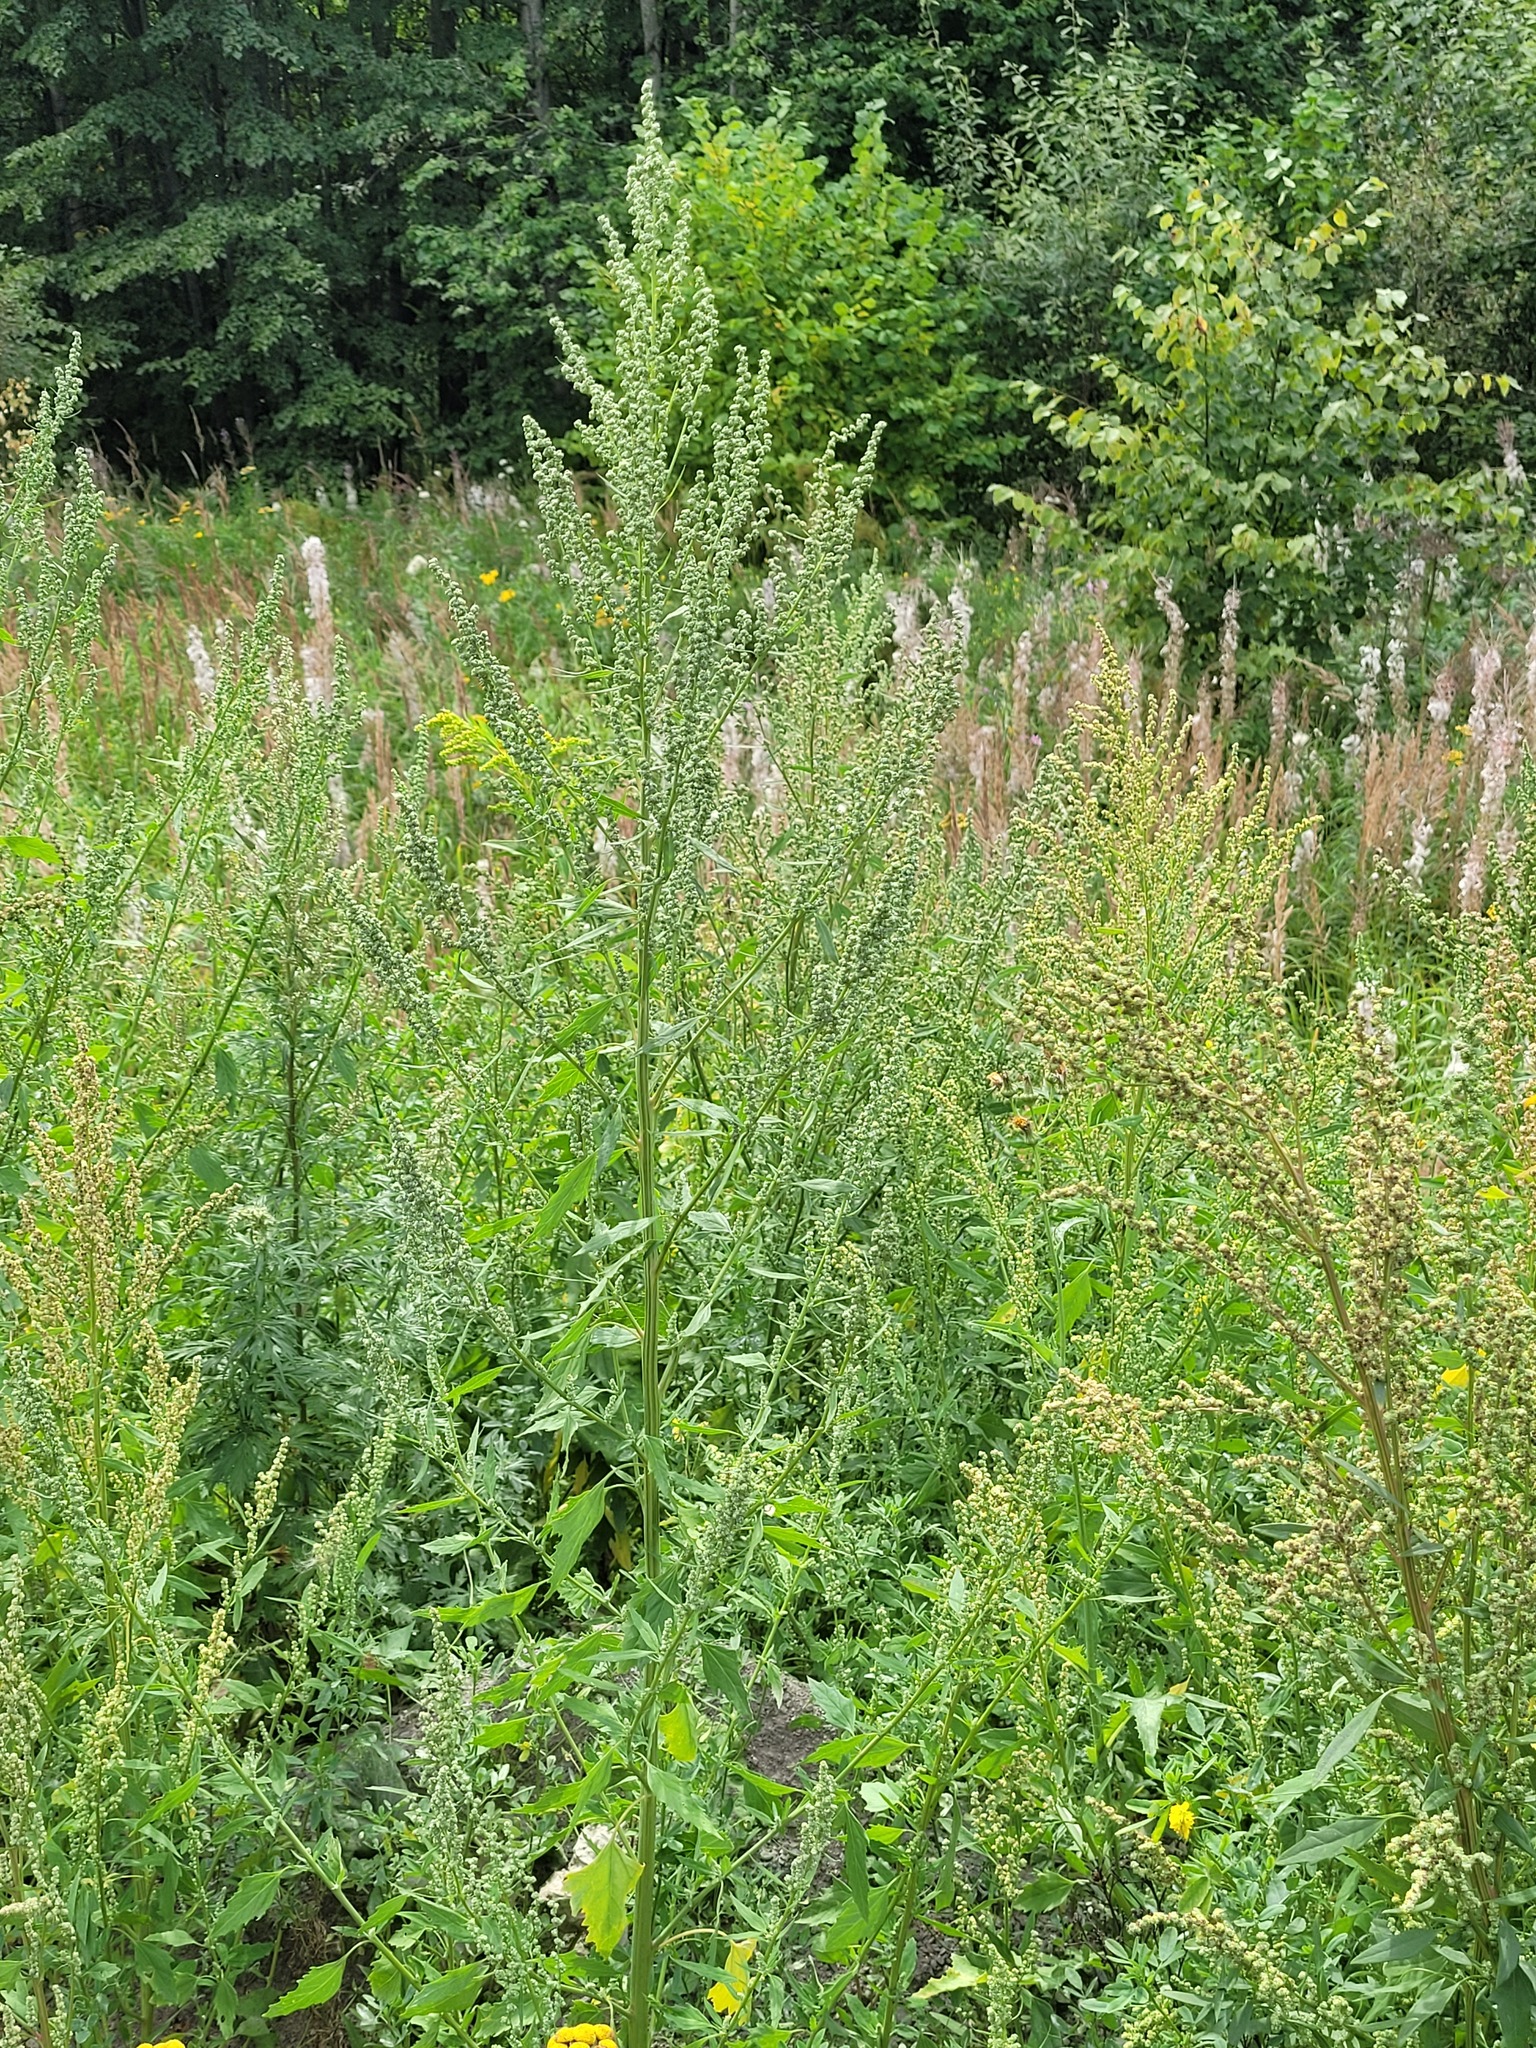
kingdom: Plantae
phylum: Tracheophyta
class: Magnoliopsida
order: Caryophyllales
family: Amaranthaceae
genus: Chenopodium
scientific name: Chenopodium album
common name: Fat-hen
